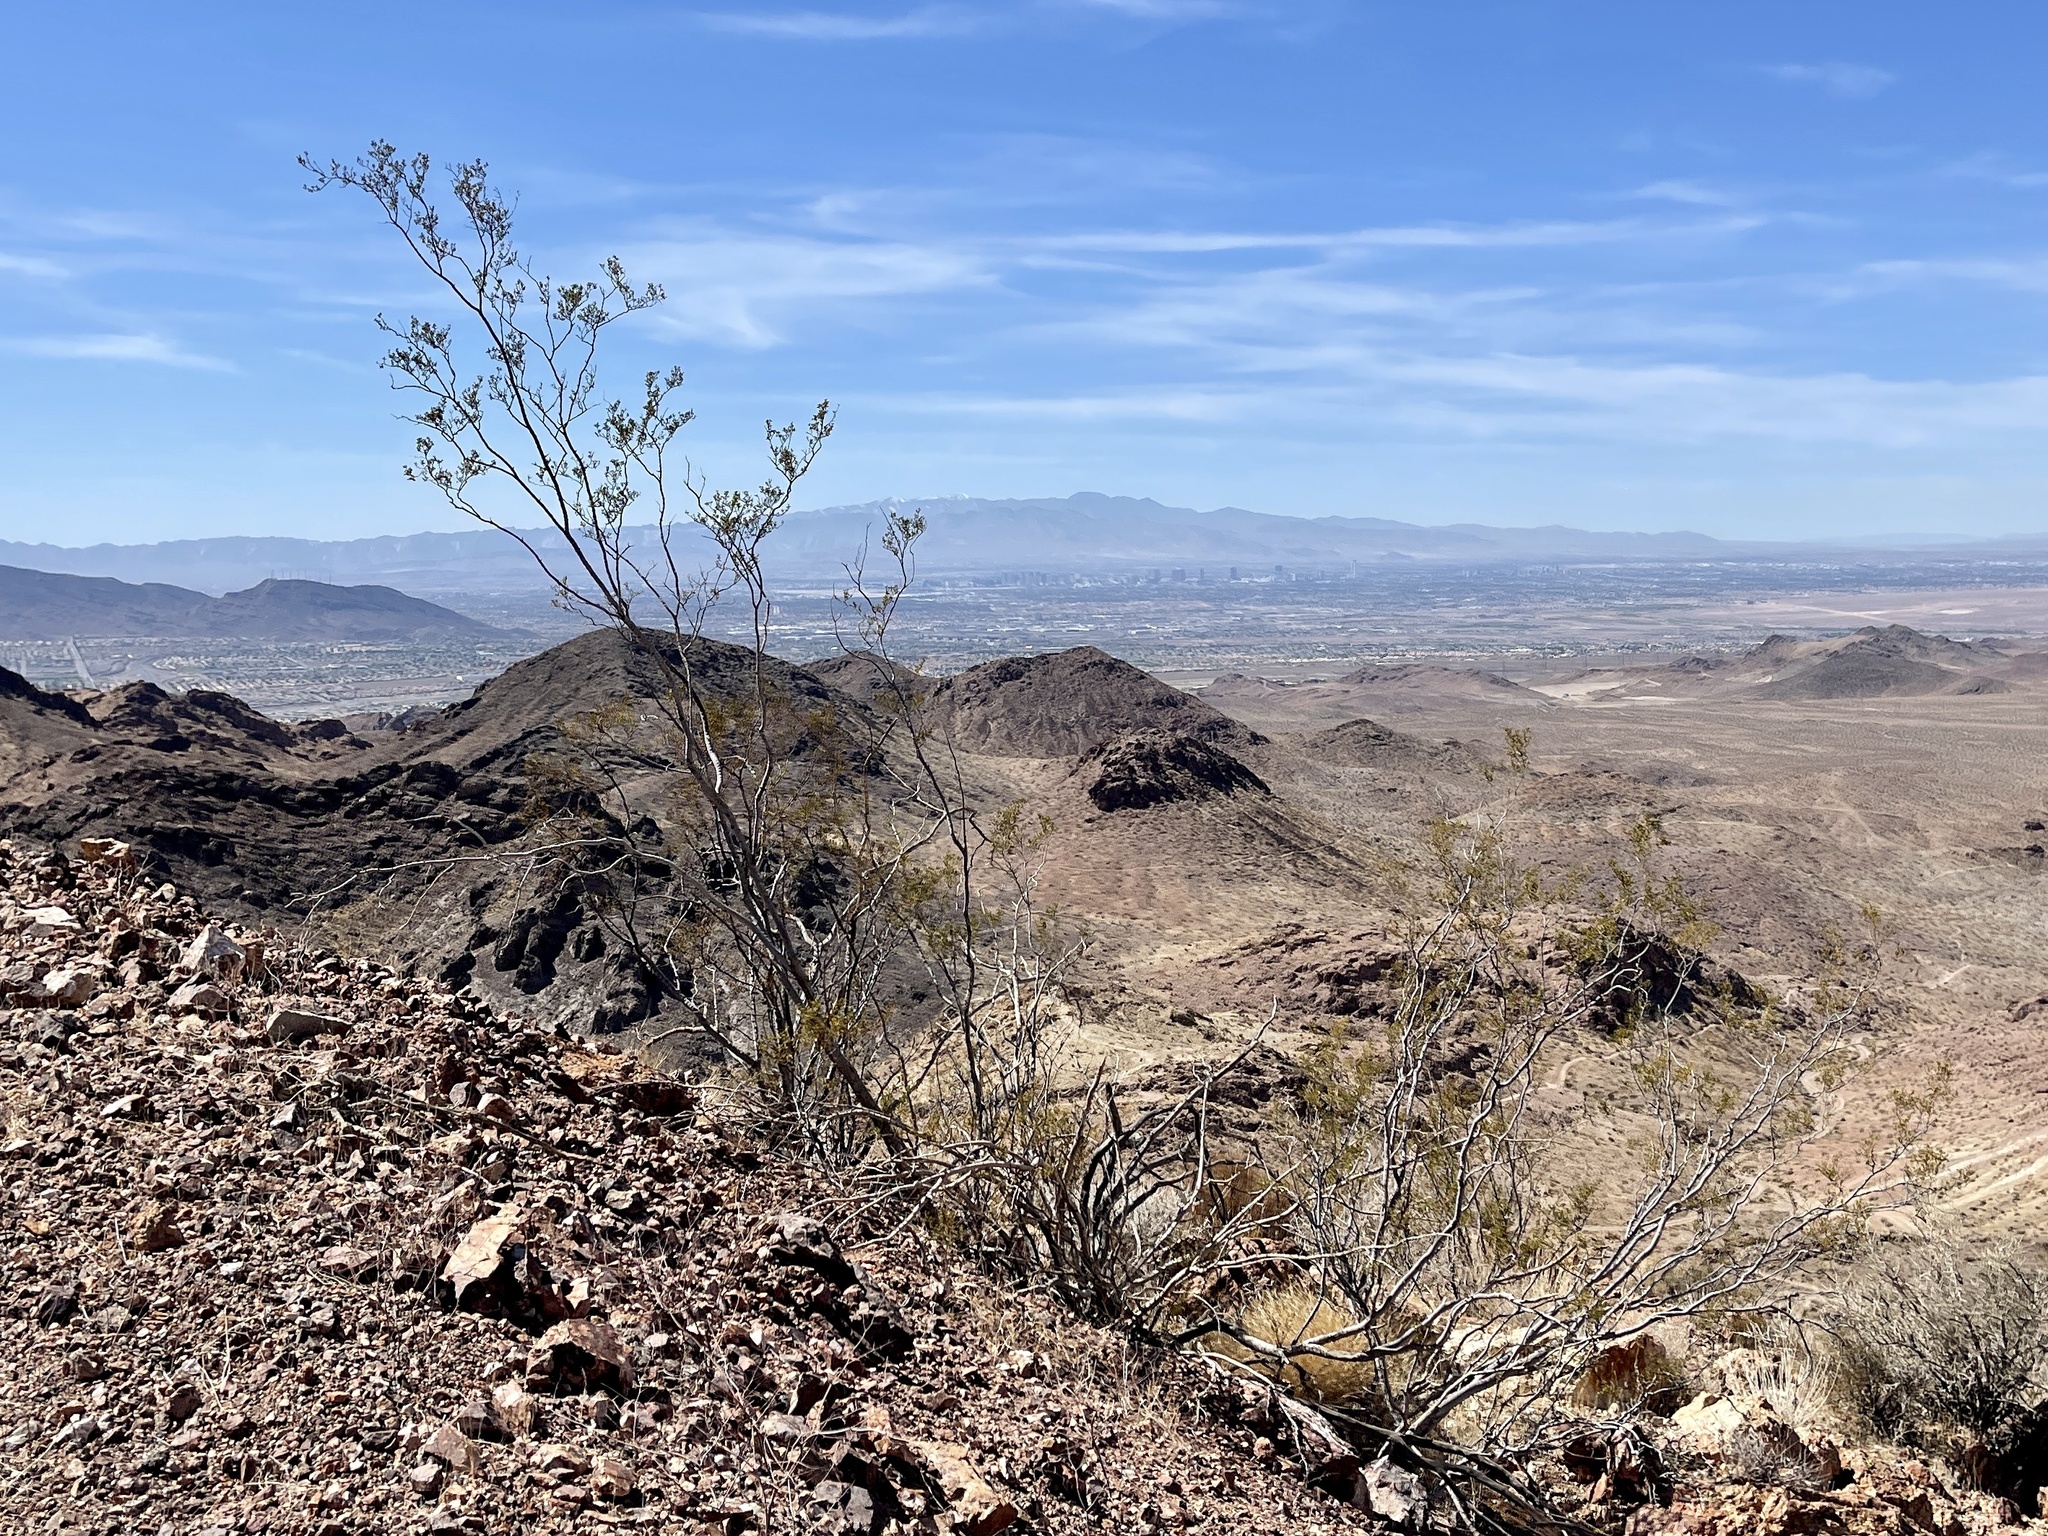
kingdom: Plantae
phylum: Tracheophyta
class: Magnoliopsida
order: Zygophyllales
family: Zygophyllaceae
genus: Larrea
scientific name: Larrea tridentata
